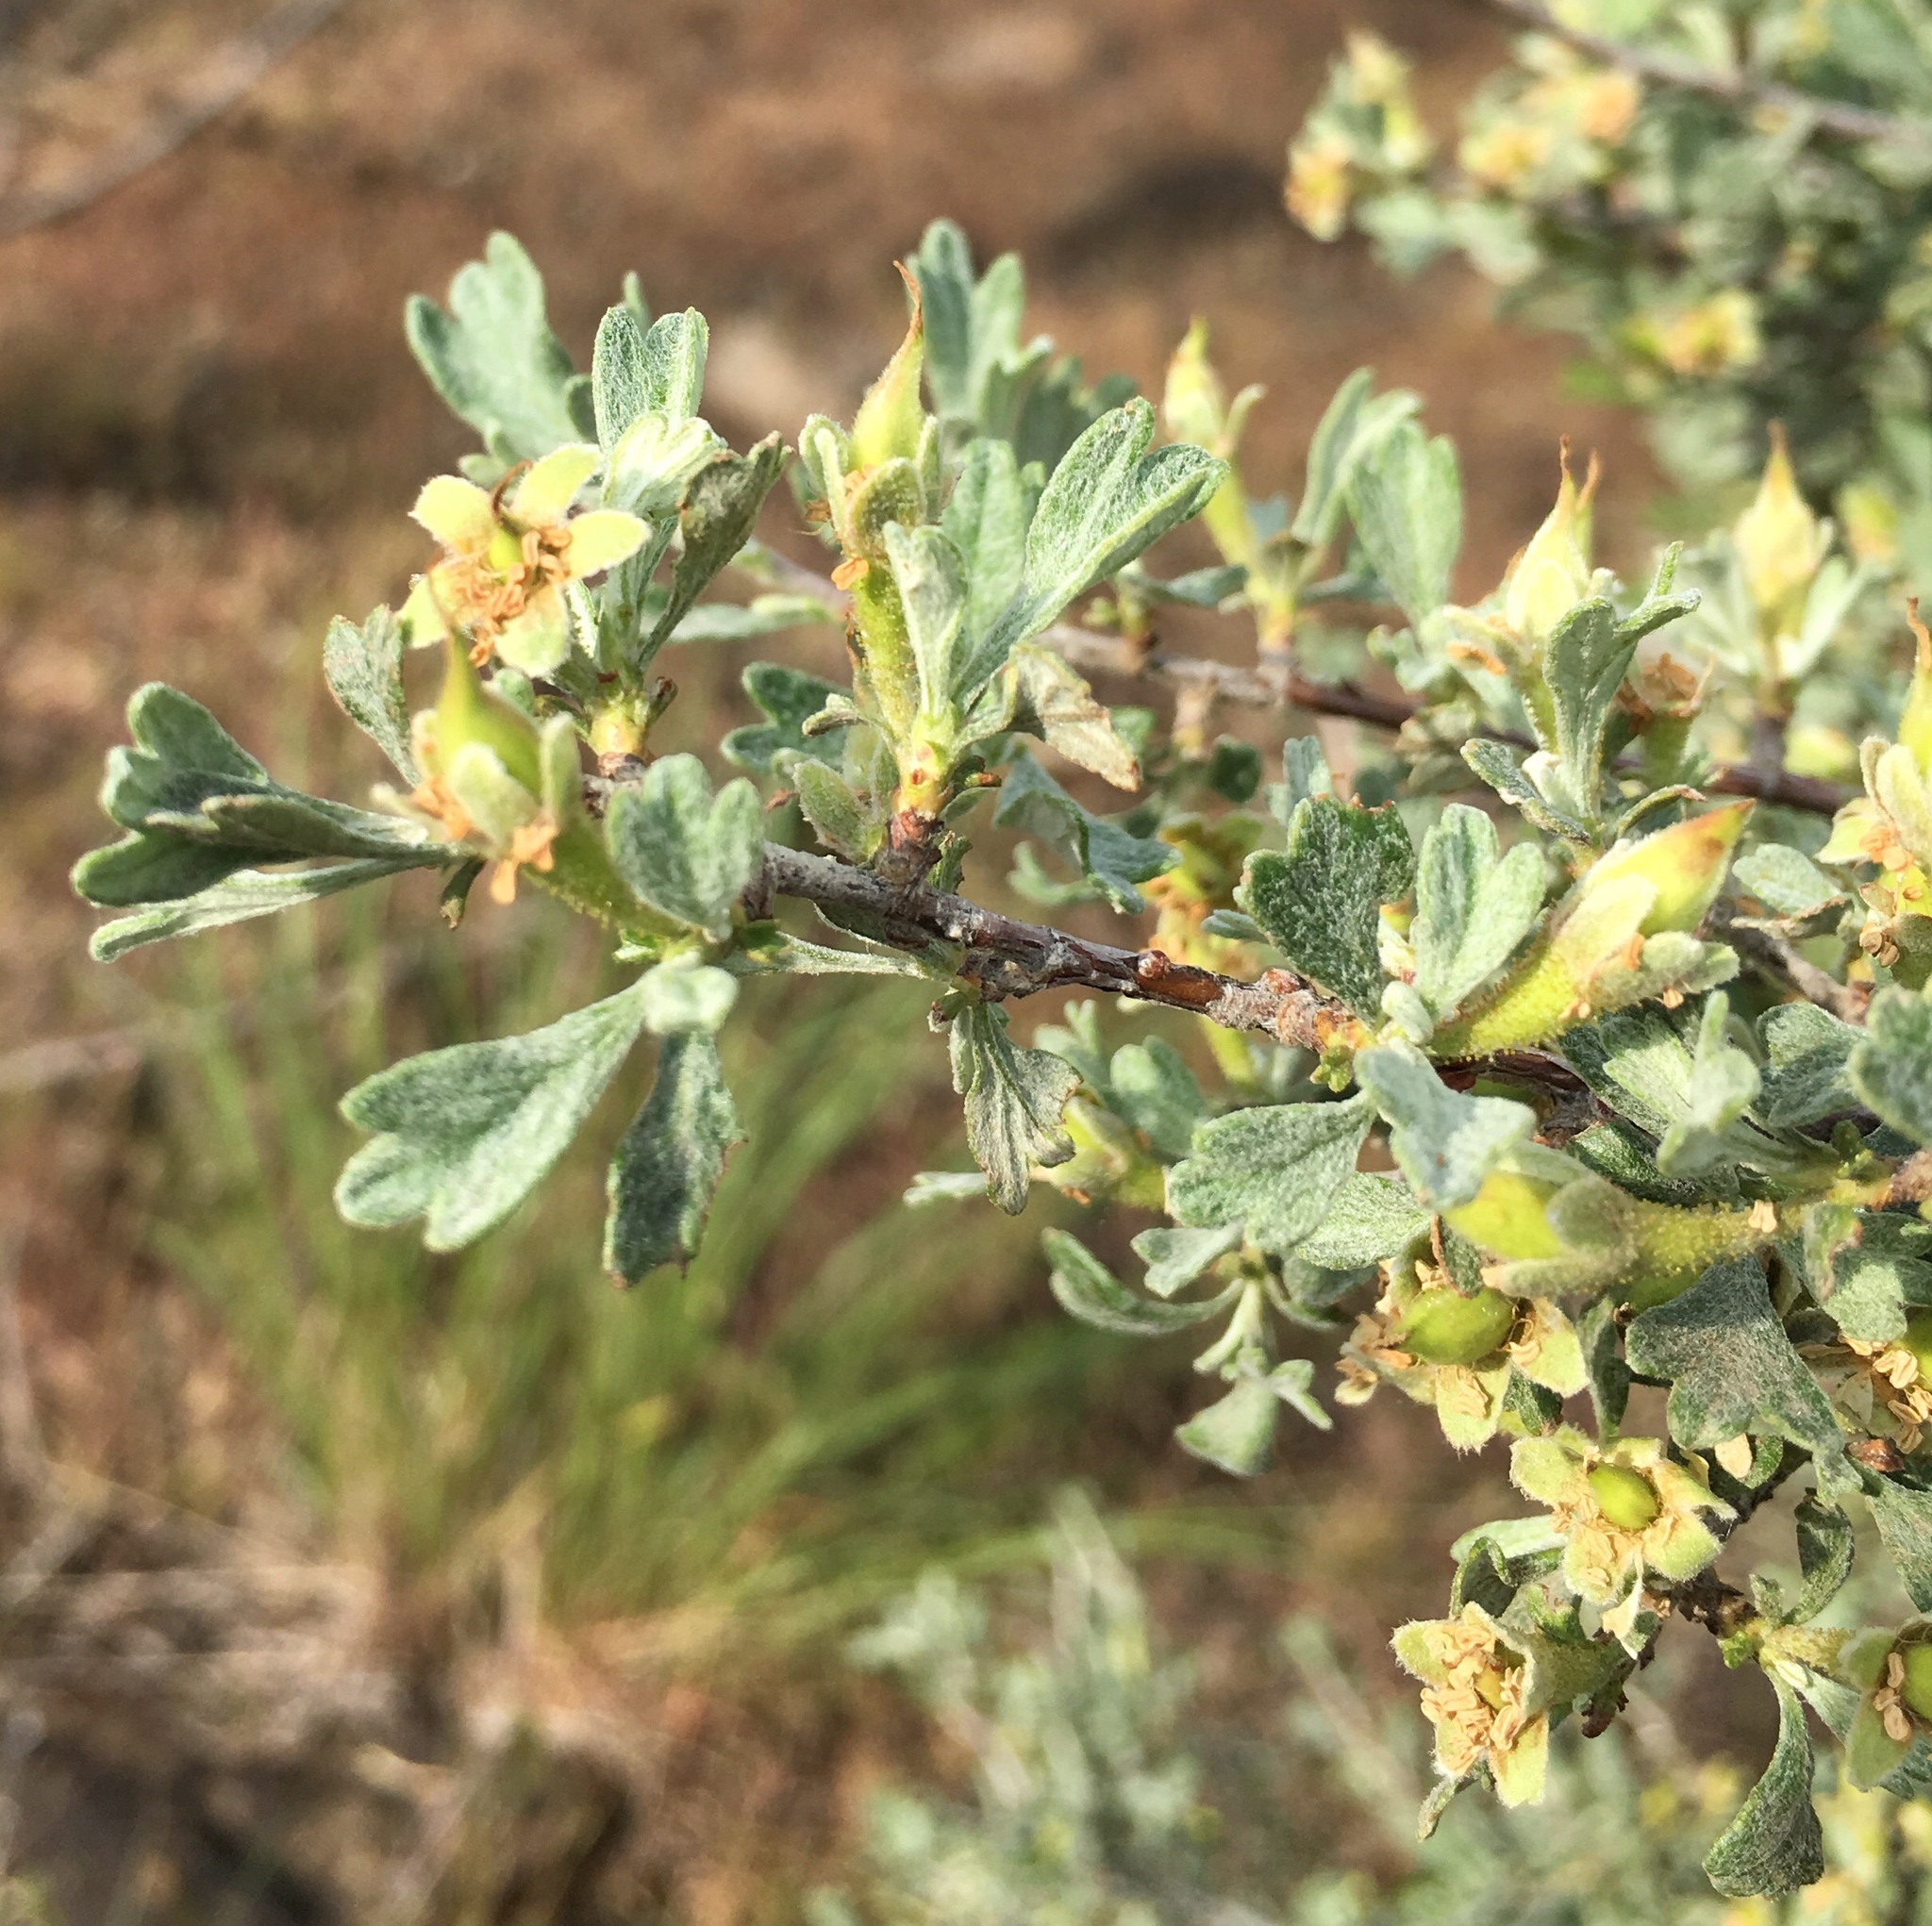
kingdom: Plantae
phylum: Tracheophyta
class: Magnoliopsida
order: Rosales
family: Rosaceae
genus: Purshia
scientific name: Purshia tridentata
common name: Antelope bitterbrush
